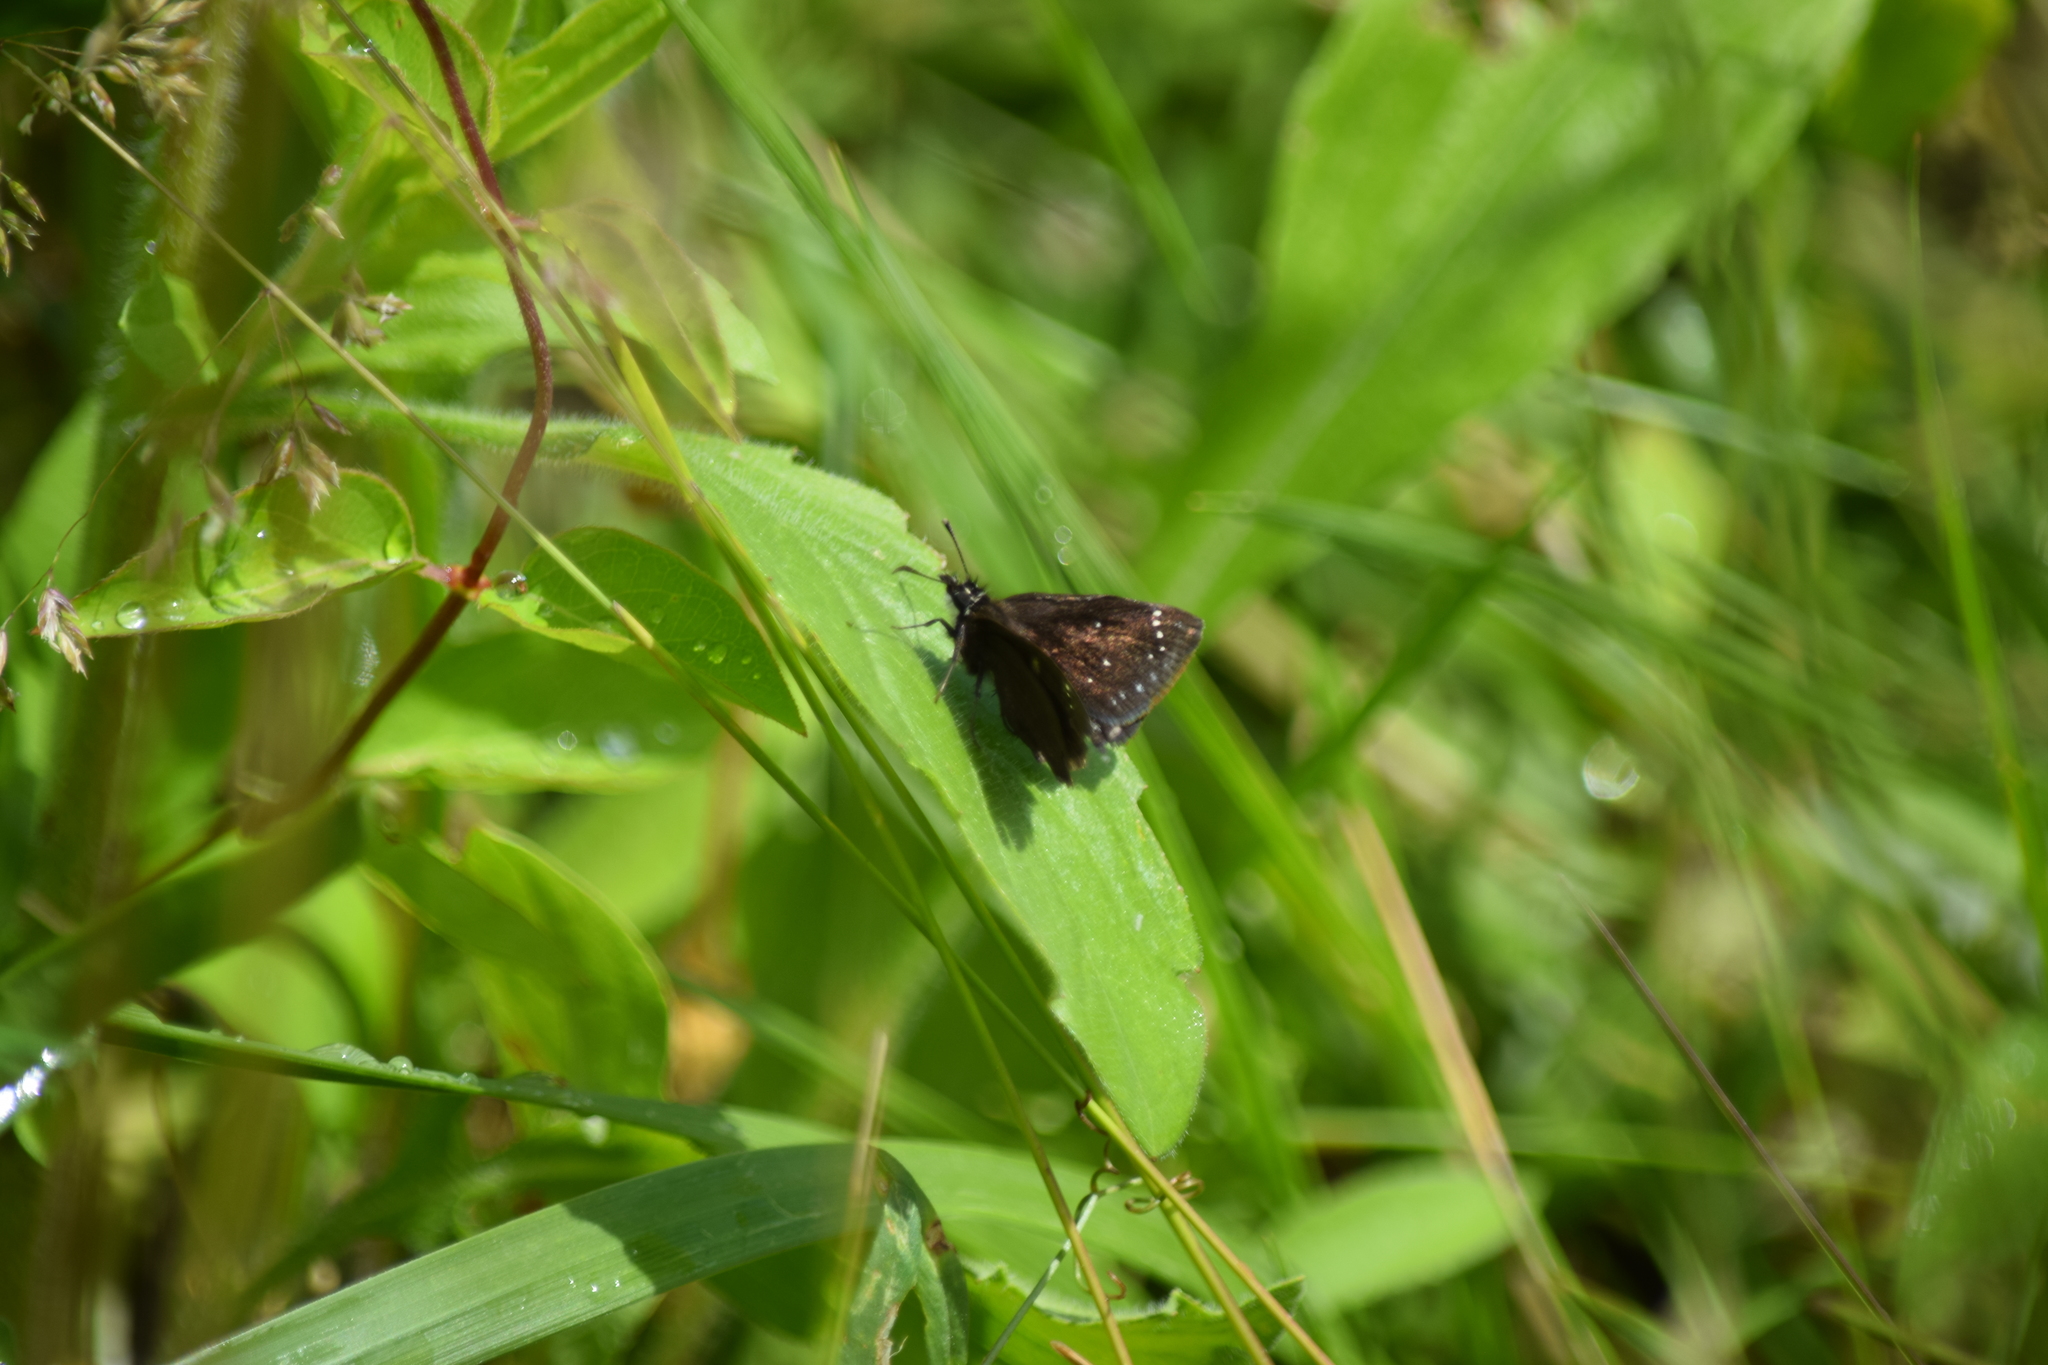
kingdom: Animalia
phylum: Arthropoda
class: Insecta
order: Lepidoptera
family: Hesperiidae
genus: Erynnis
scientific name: Erynnis horatius
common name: Horace's duskywing
